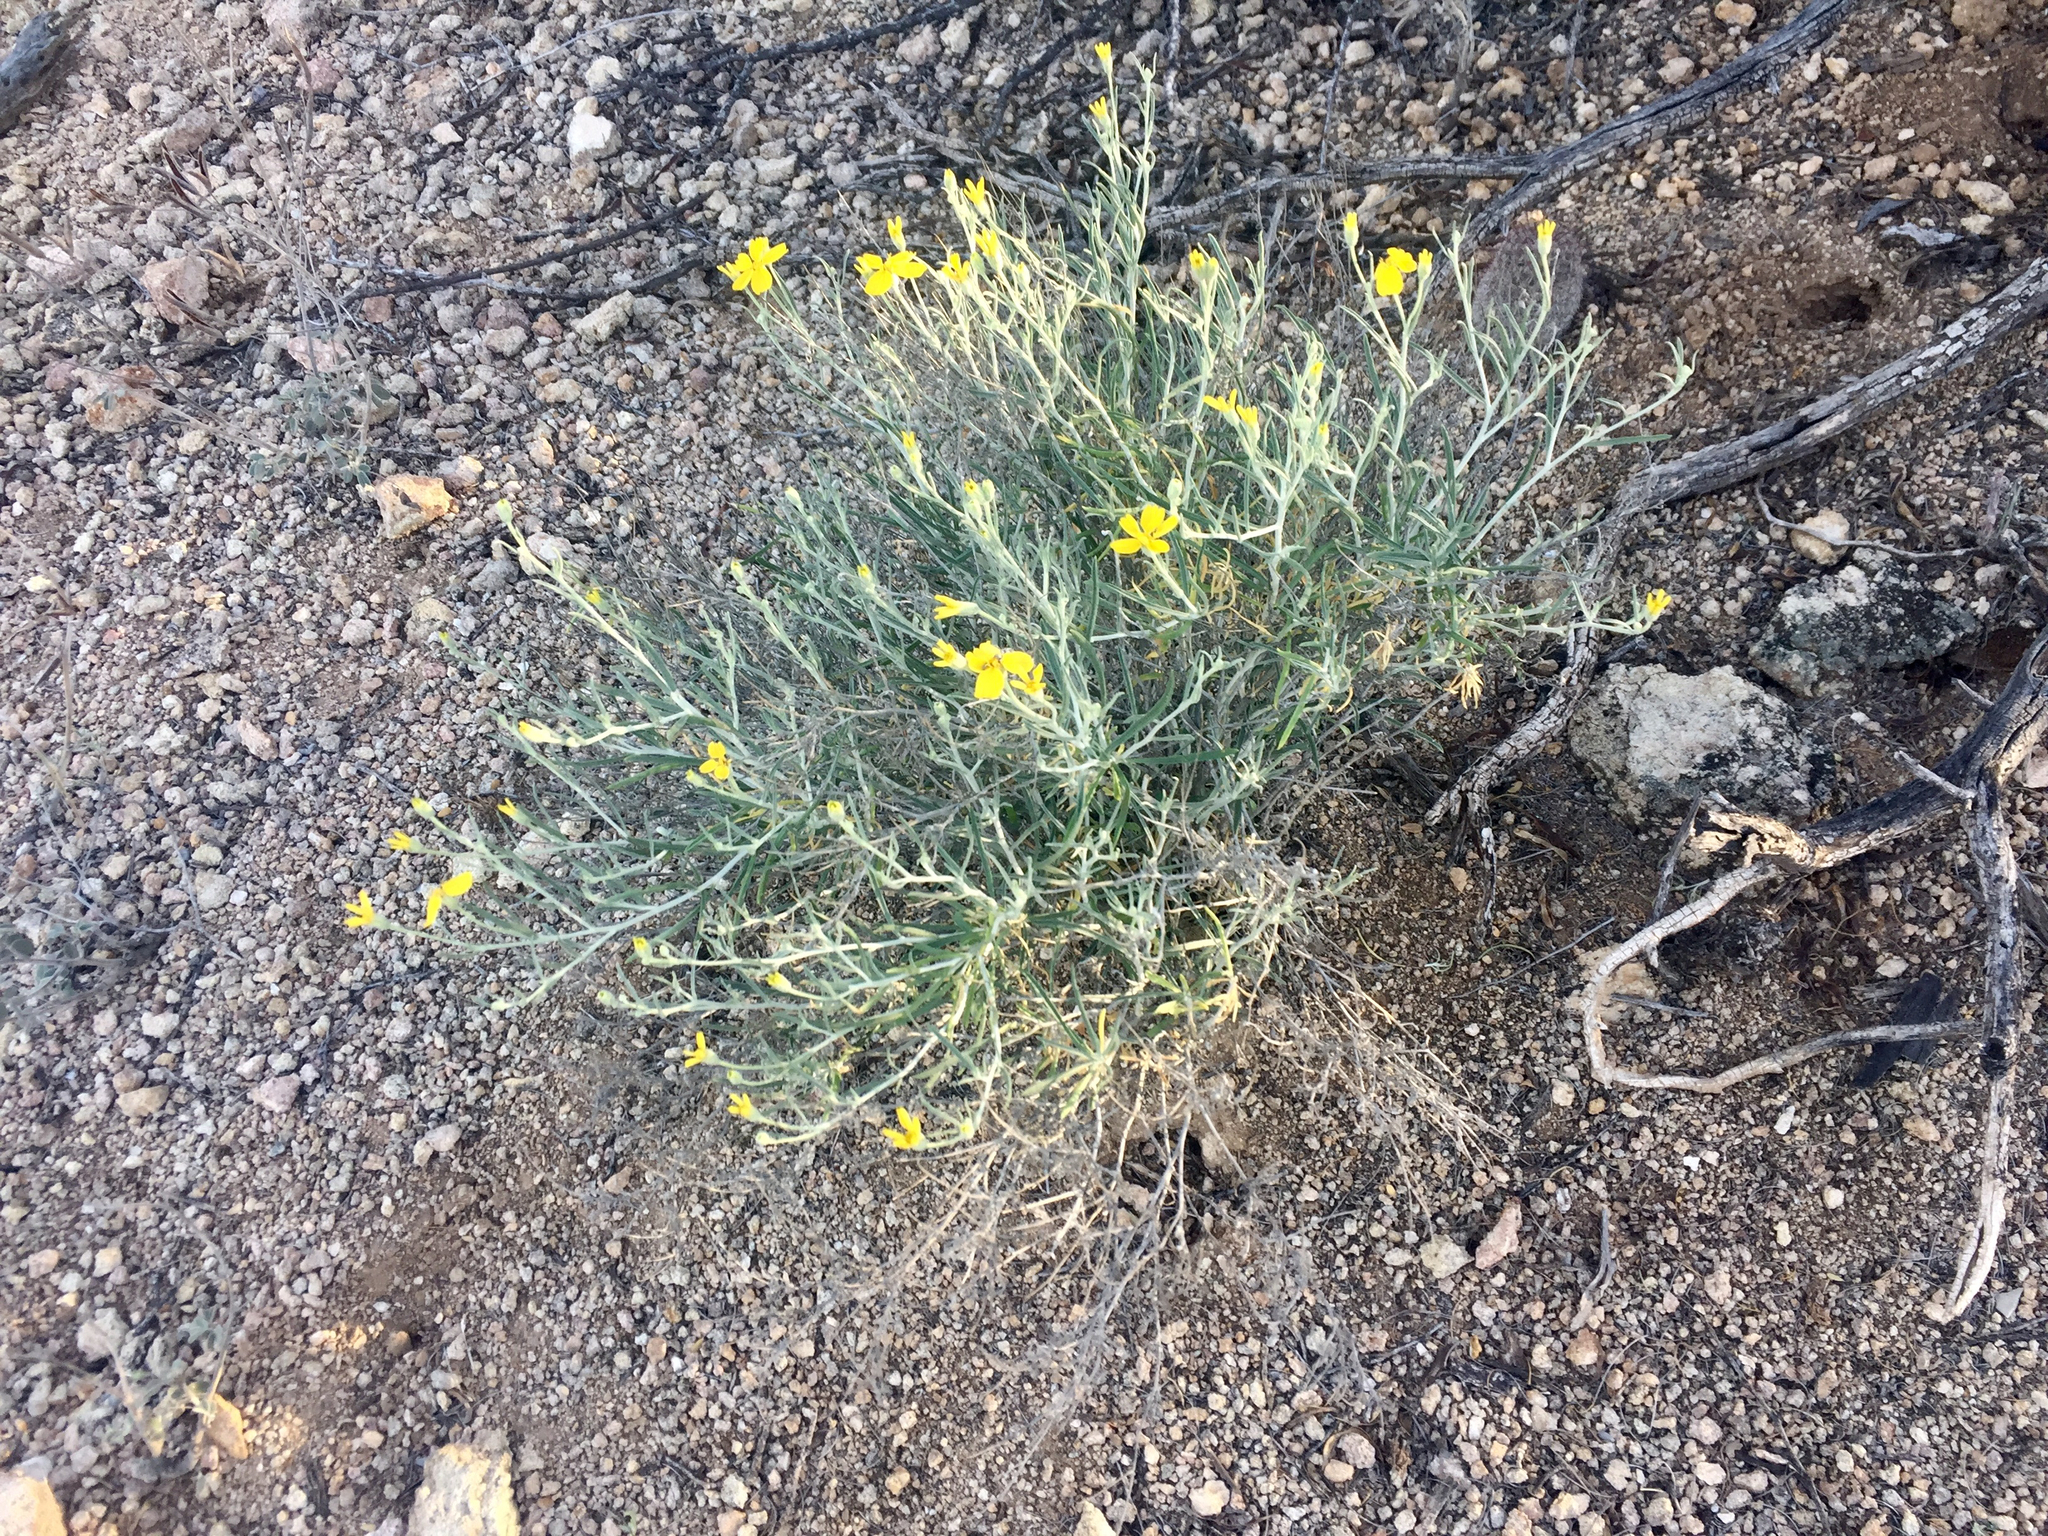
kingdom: Plantae
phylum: Tracheophyta
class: Magnoliopsida
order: Asterales
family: Asteraceae
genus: Psilostrophe
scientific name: Psilostrophe cooperi
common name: White-stem paper-flower
